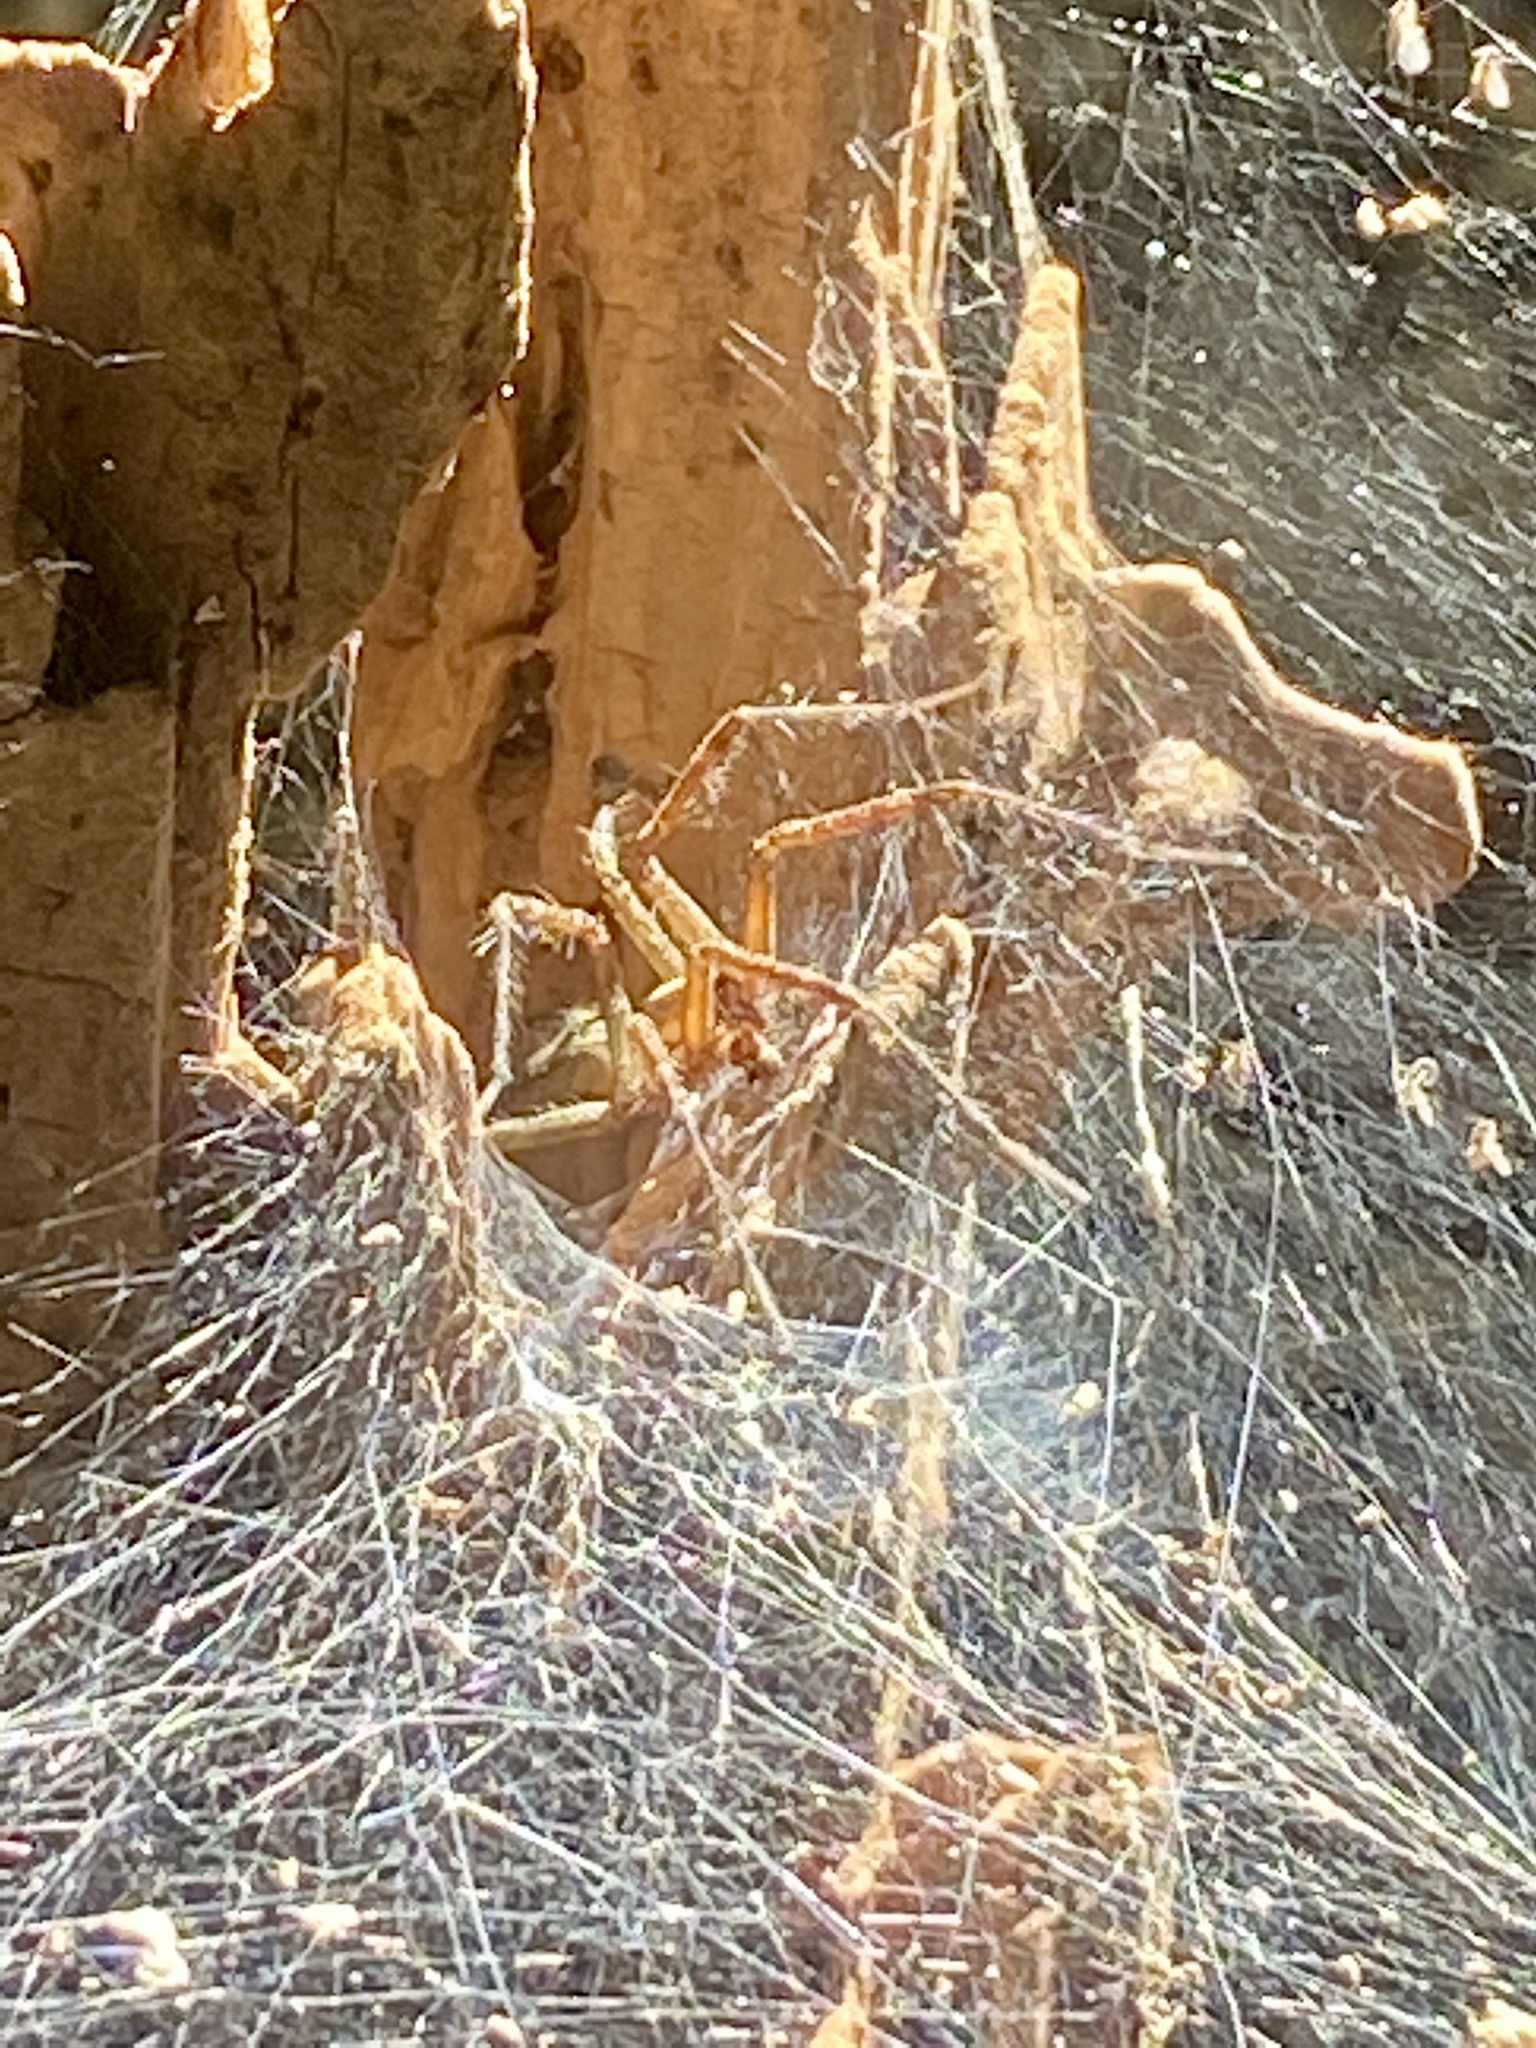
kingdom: Animalia
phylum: Arthropoda
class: Arachnida
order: Araneae
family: Agelenidae
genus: Agelenopsis
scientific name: Agelenopsis
